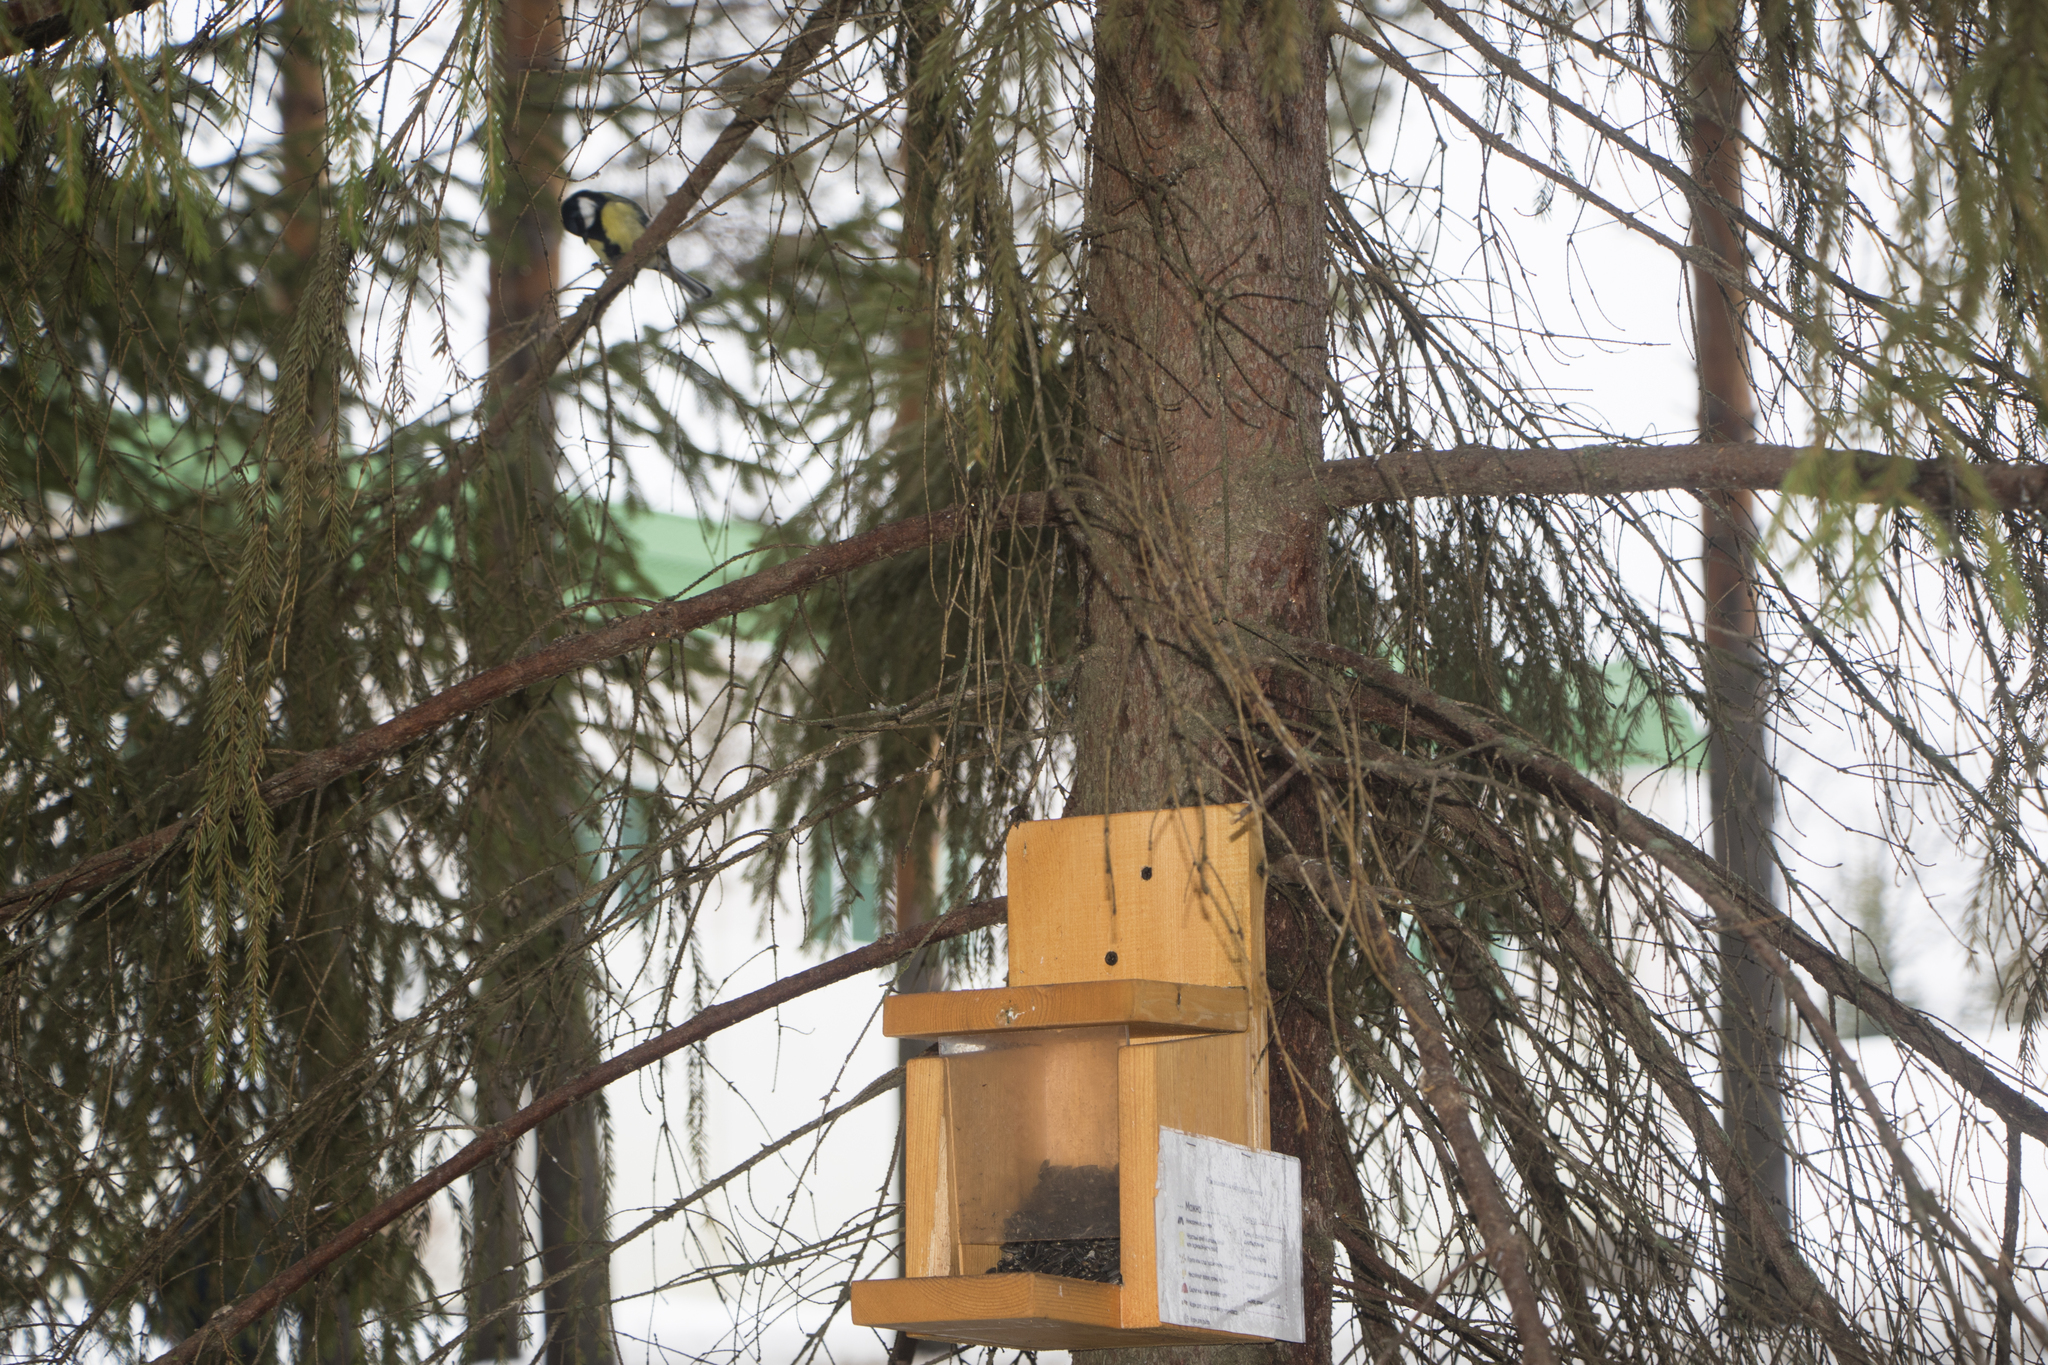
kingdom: Animalia
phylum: Chordata
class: Aves
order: Passeriformes
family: Paridae
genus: Parus
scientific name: Parus major
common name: Great tit
